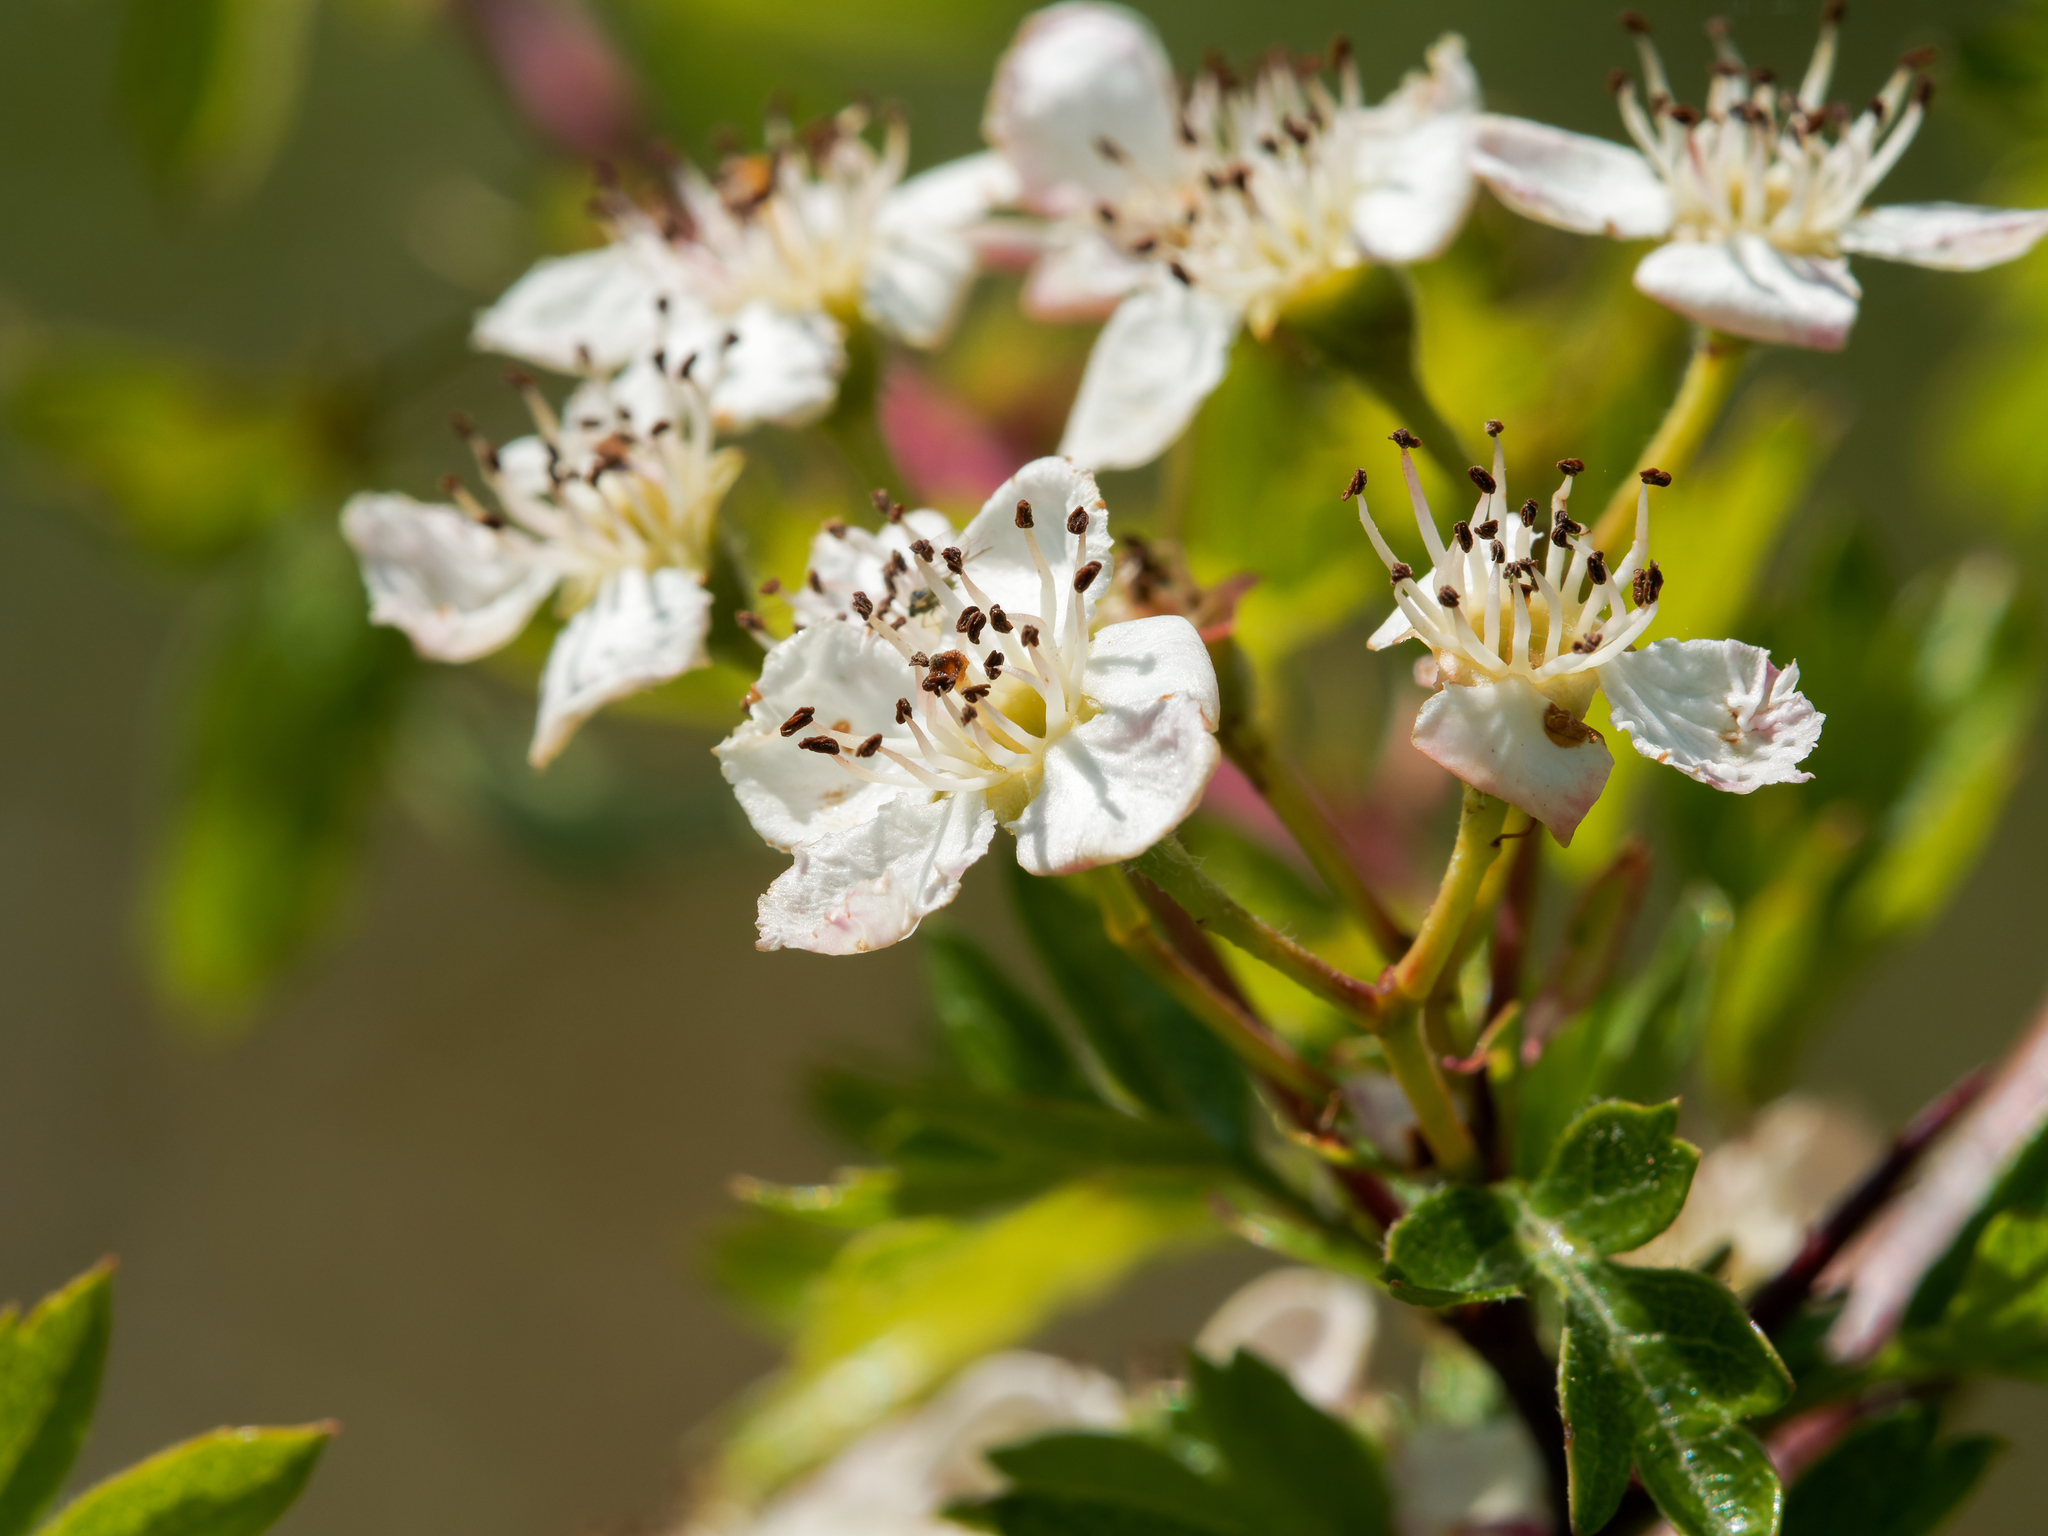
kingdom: Plantae
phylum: Tracheophyta
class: Magnoliopsida
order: Rosales
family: Rosaceae
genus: Crataegus
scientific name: Crataegus monogyna
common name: Hawthorn
